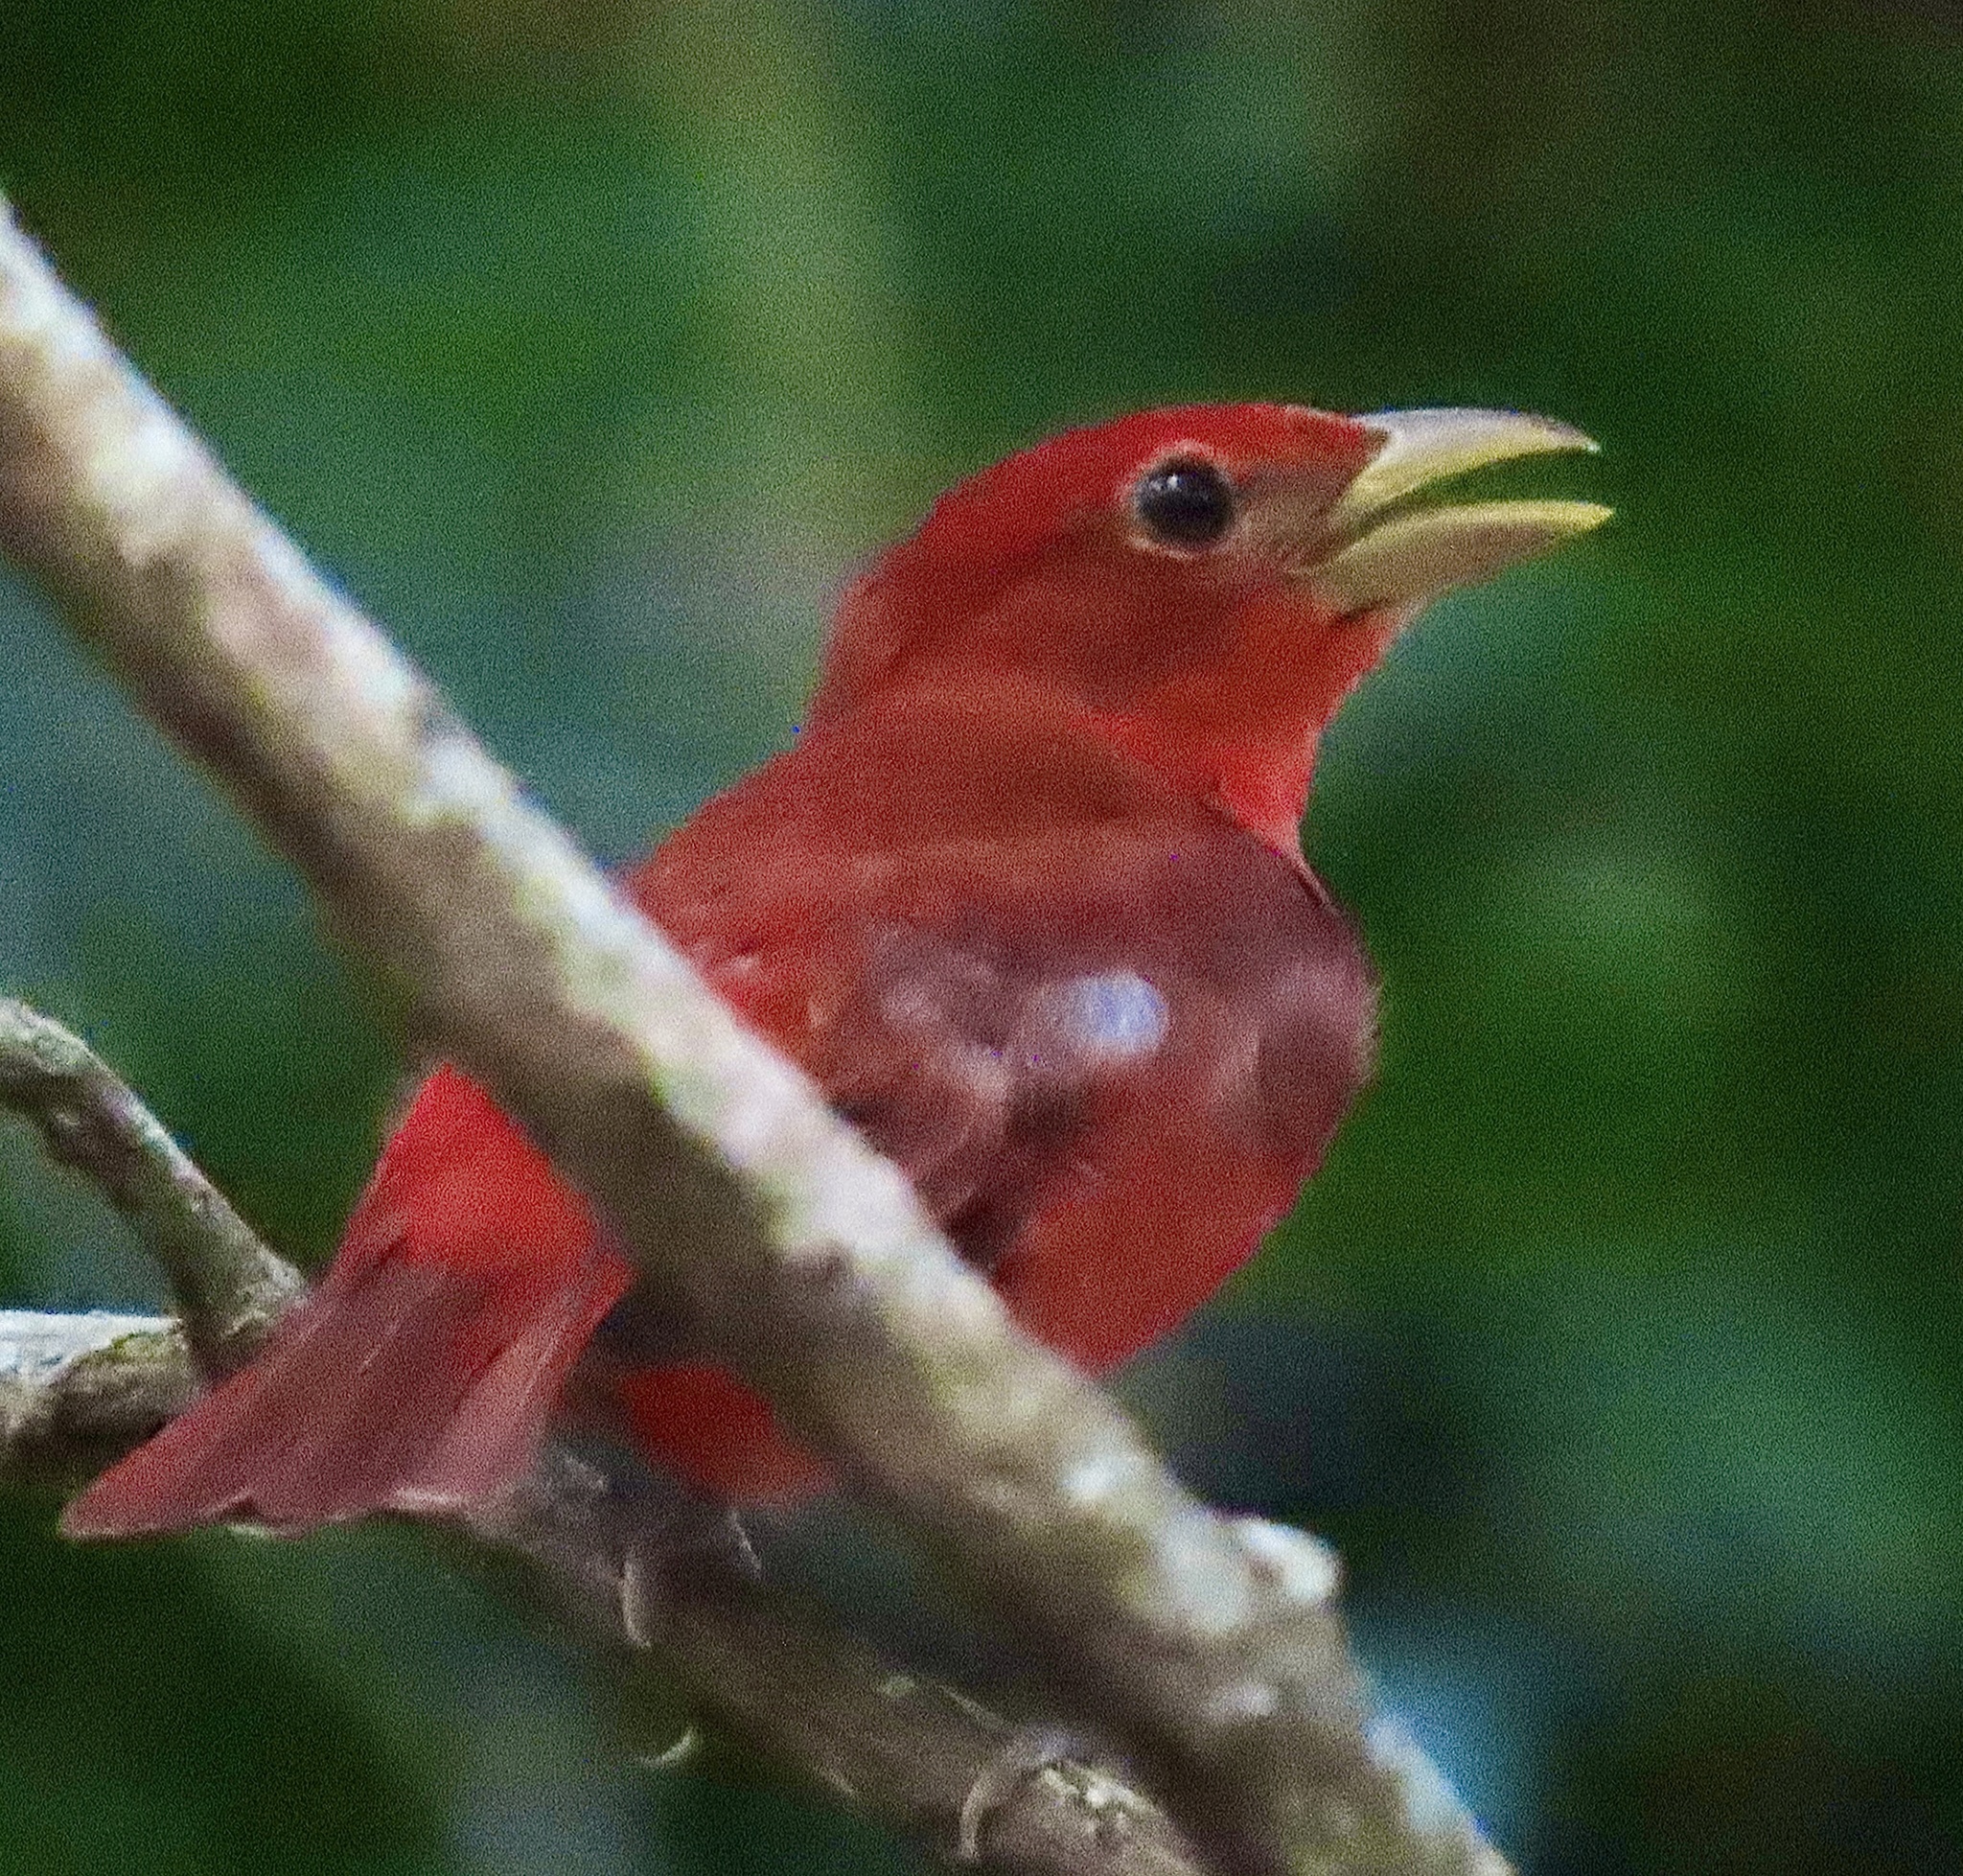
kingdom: Animalia
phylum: Chordata
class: Aves
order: Passeriformes
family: Cardinalidae
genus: Piranga
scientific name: Piranga rubra
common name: Summer tanager
